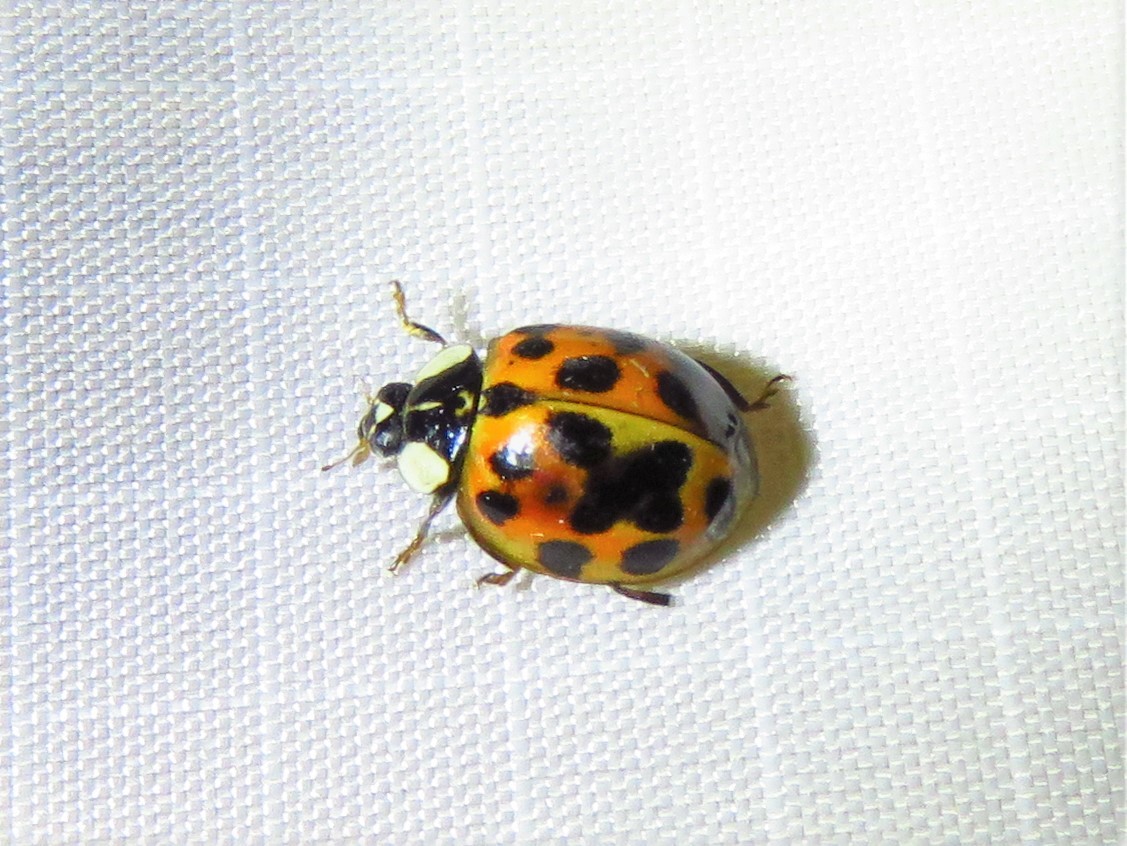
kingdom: Animalia
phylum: Arthropoda
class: Insecta
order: Coleoptera
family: Coccinellidae
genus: Harmonia
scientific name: Harmonia axyridis
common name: Harlequin ladybird
